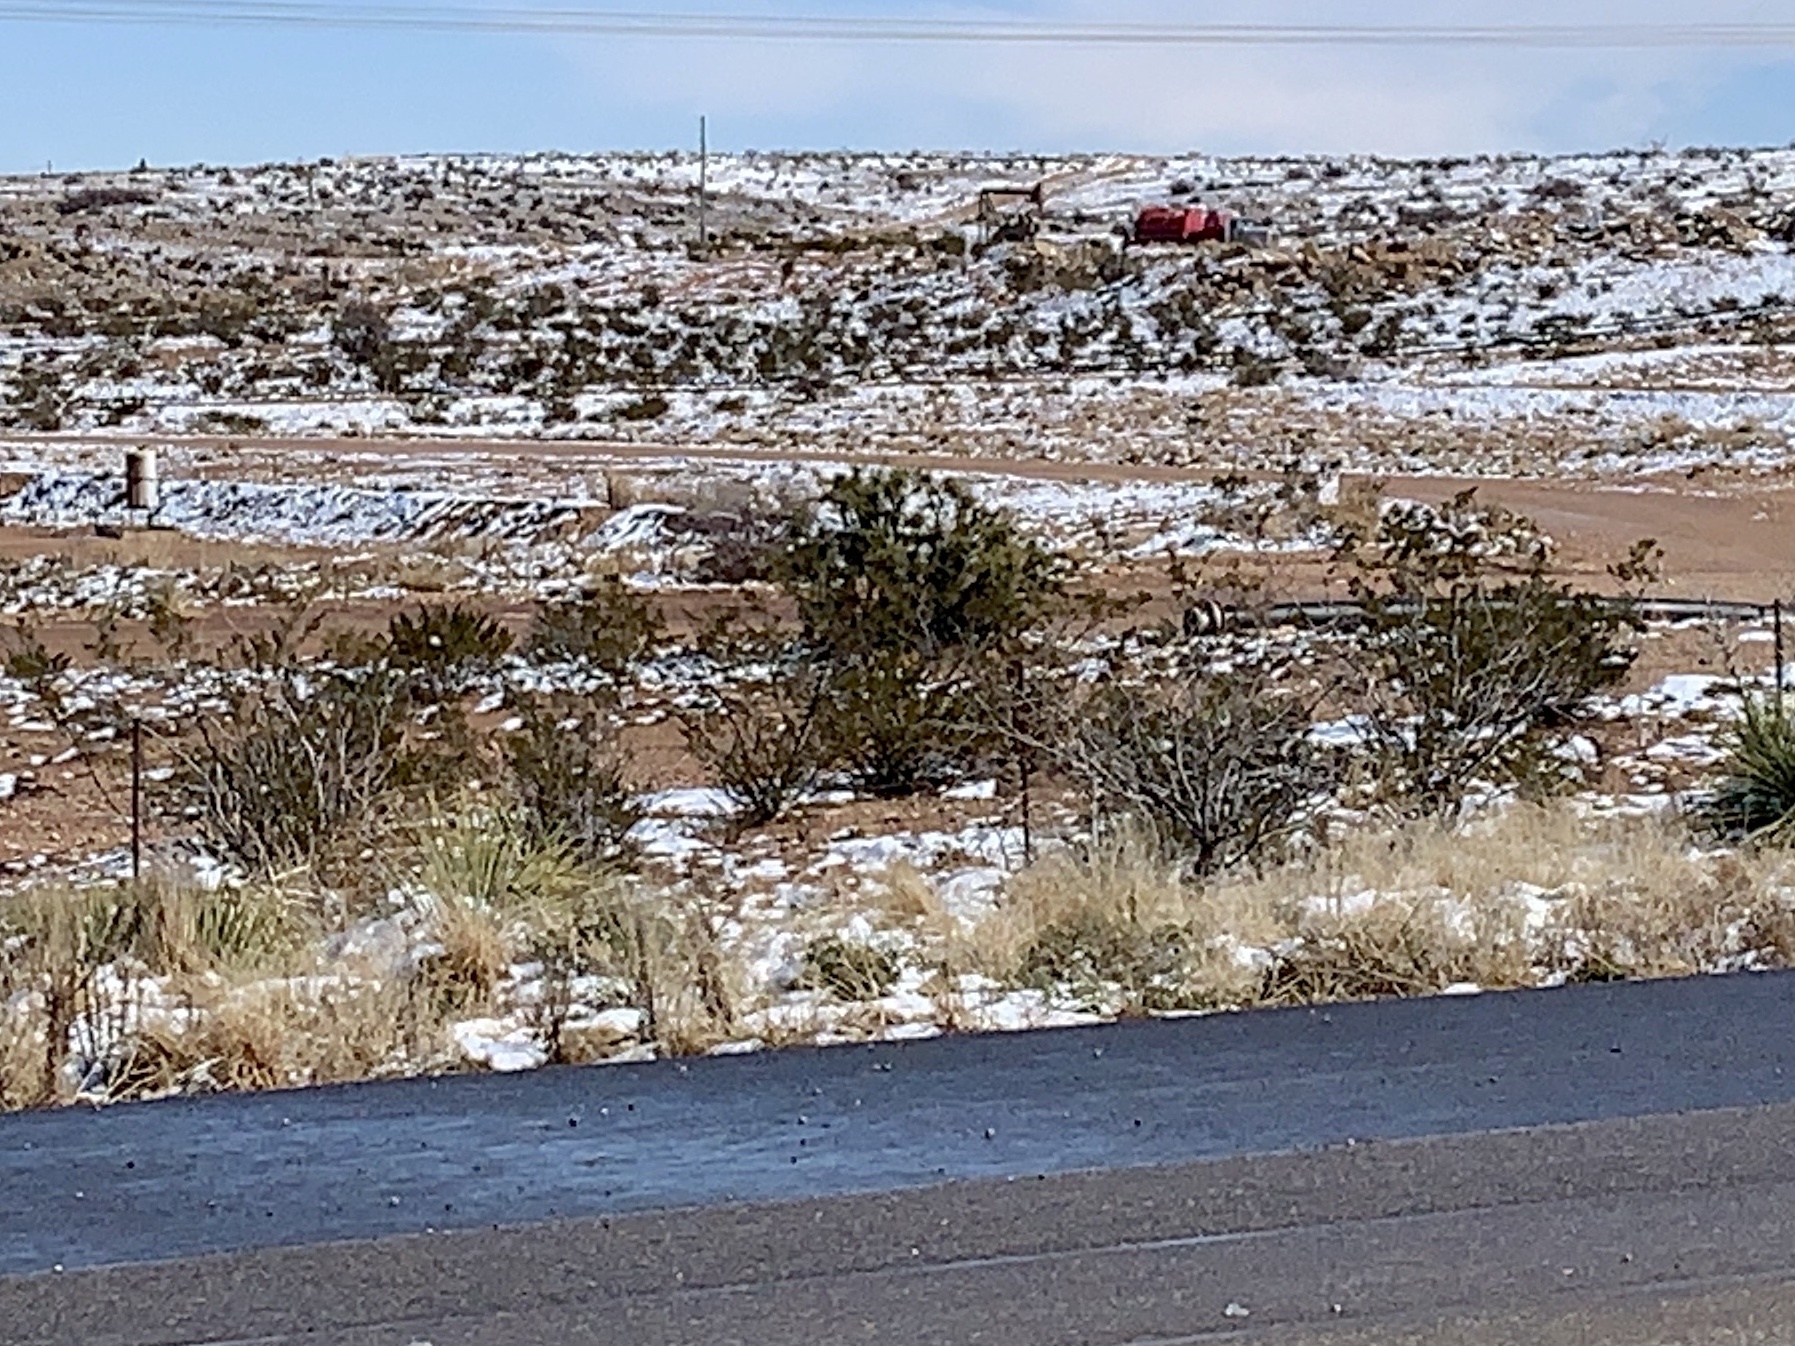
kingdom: Plantae
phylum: Tracheophyta
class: Magnoliopsida
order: Zygophyllales
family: Zygophyllaceae
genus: Larrea
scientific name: Larrea tridentata
